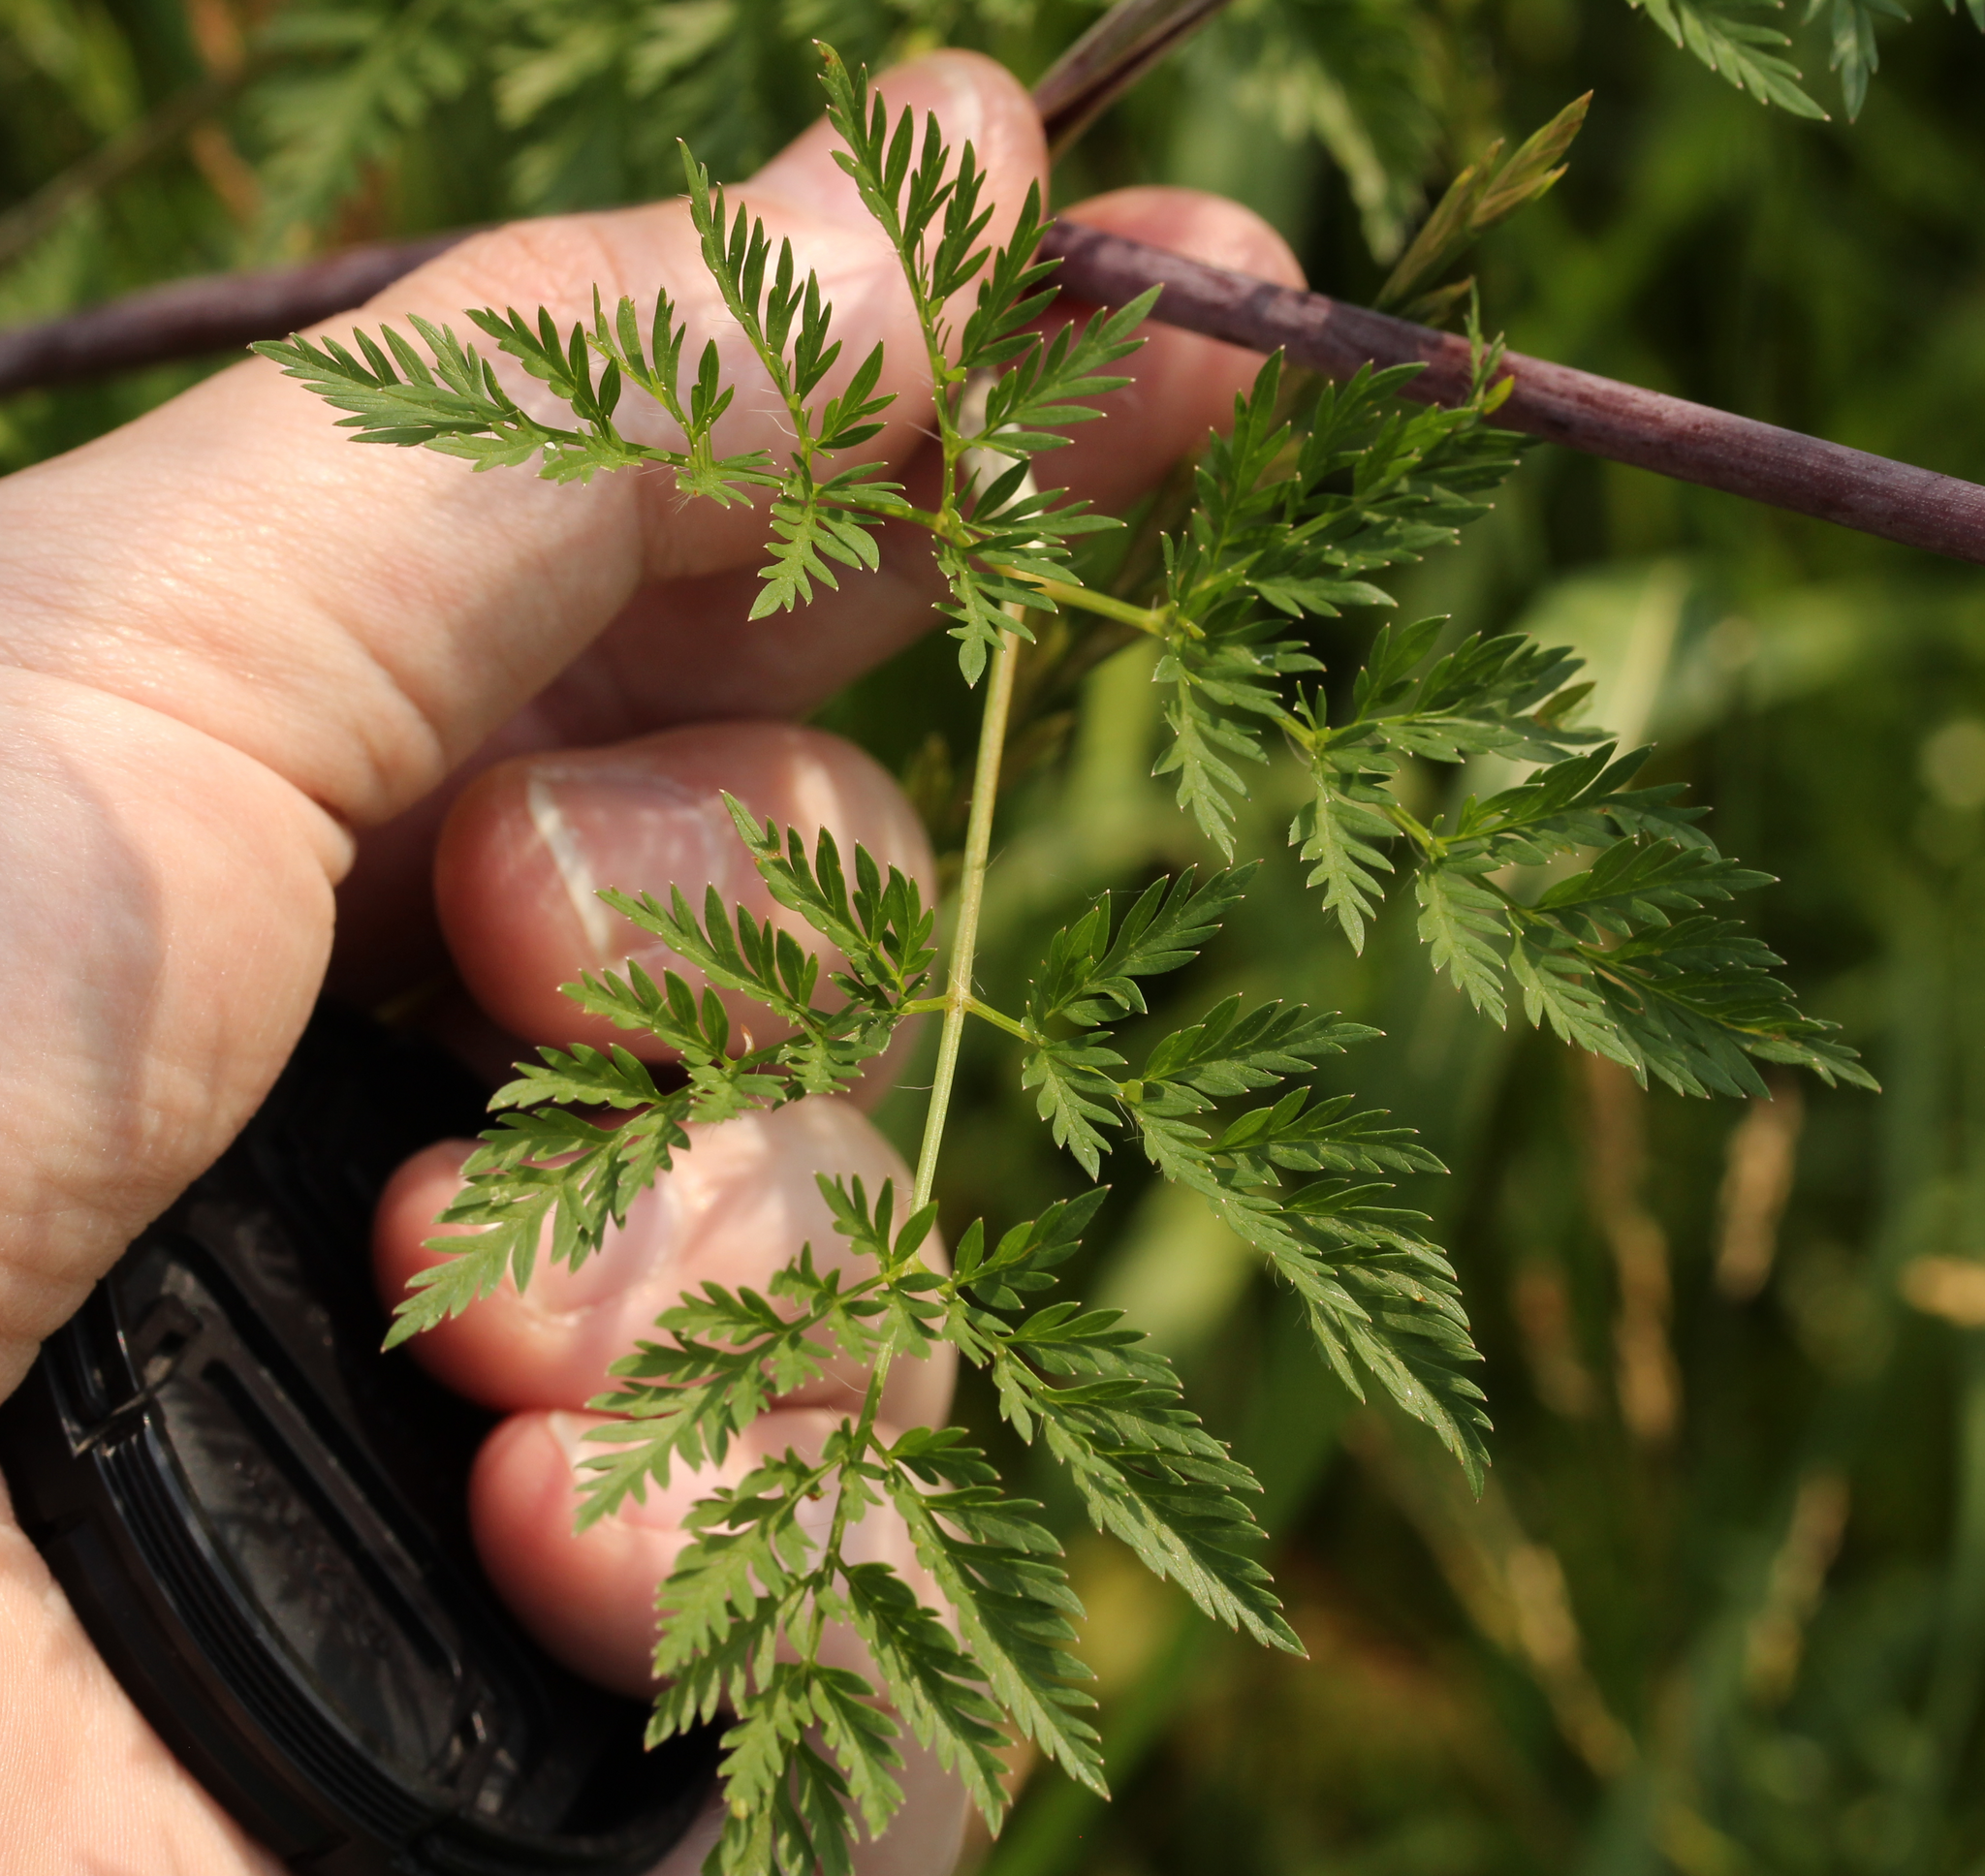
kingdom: Plantae
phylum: Tracheophyta
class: Magnoliopsida
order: Apiales
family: Apiaceae
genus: Chaerophyllum
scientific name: Chaerophyllum bulbosum
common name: Bulbous chervil
